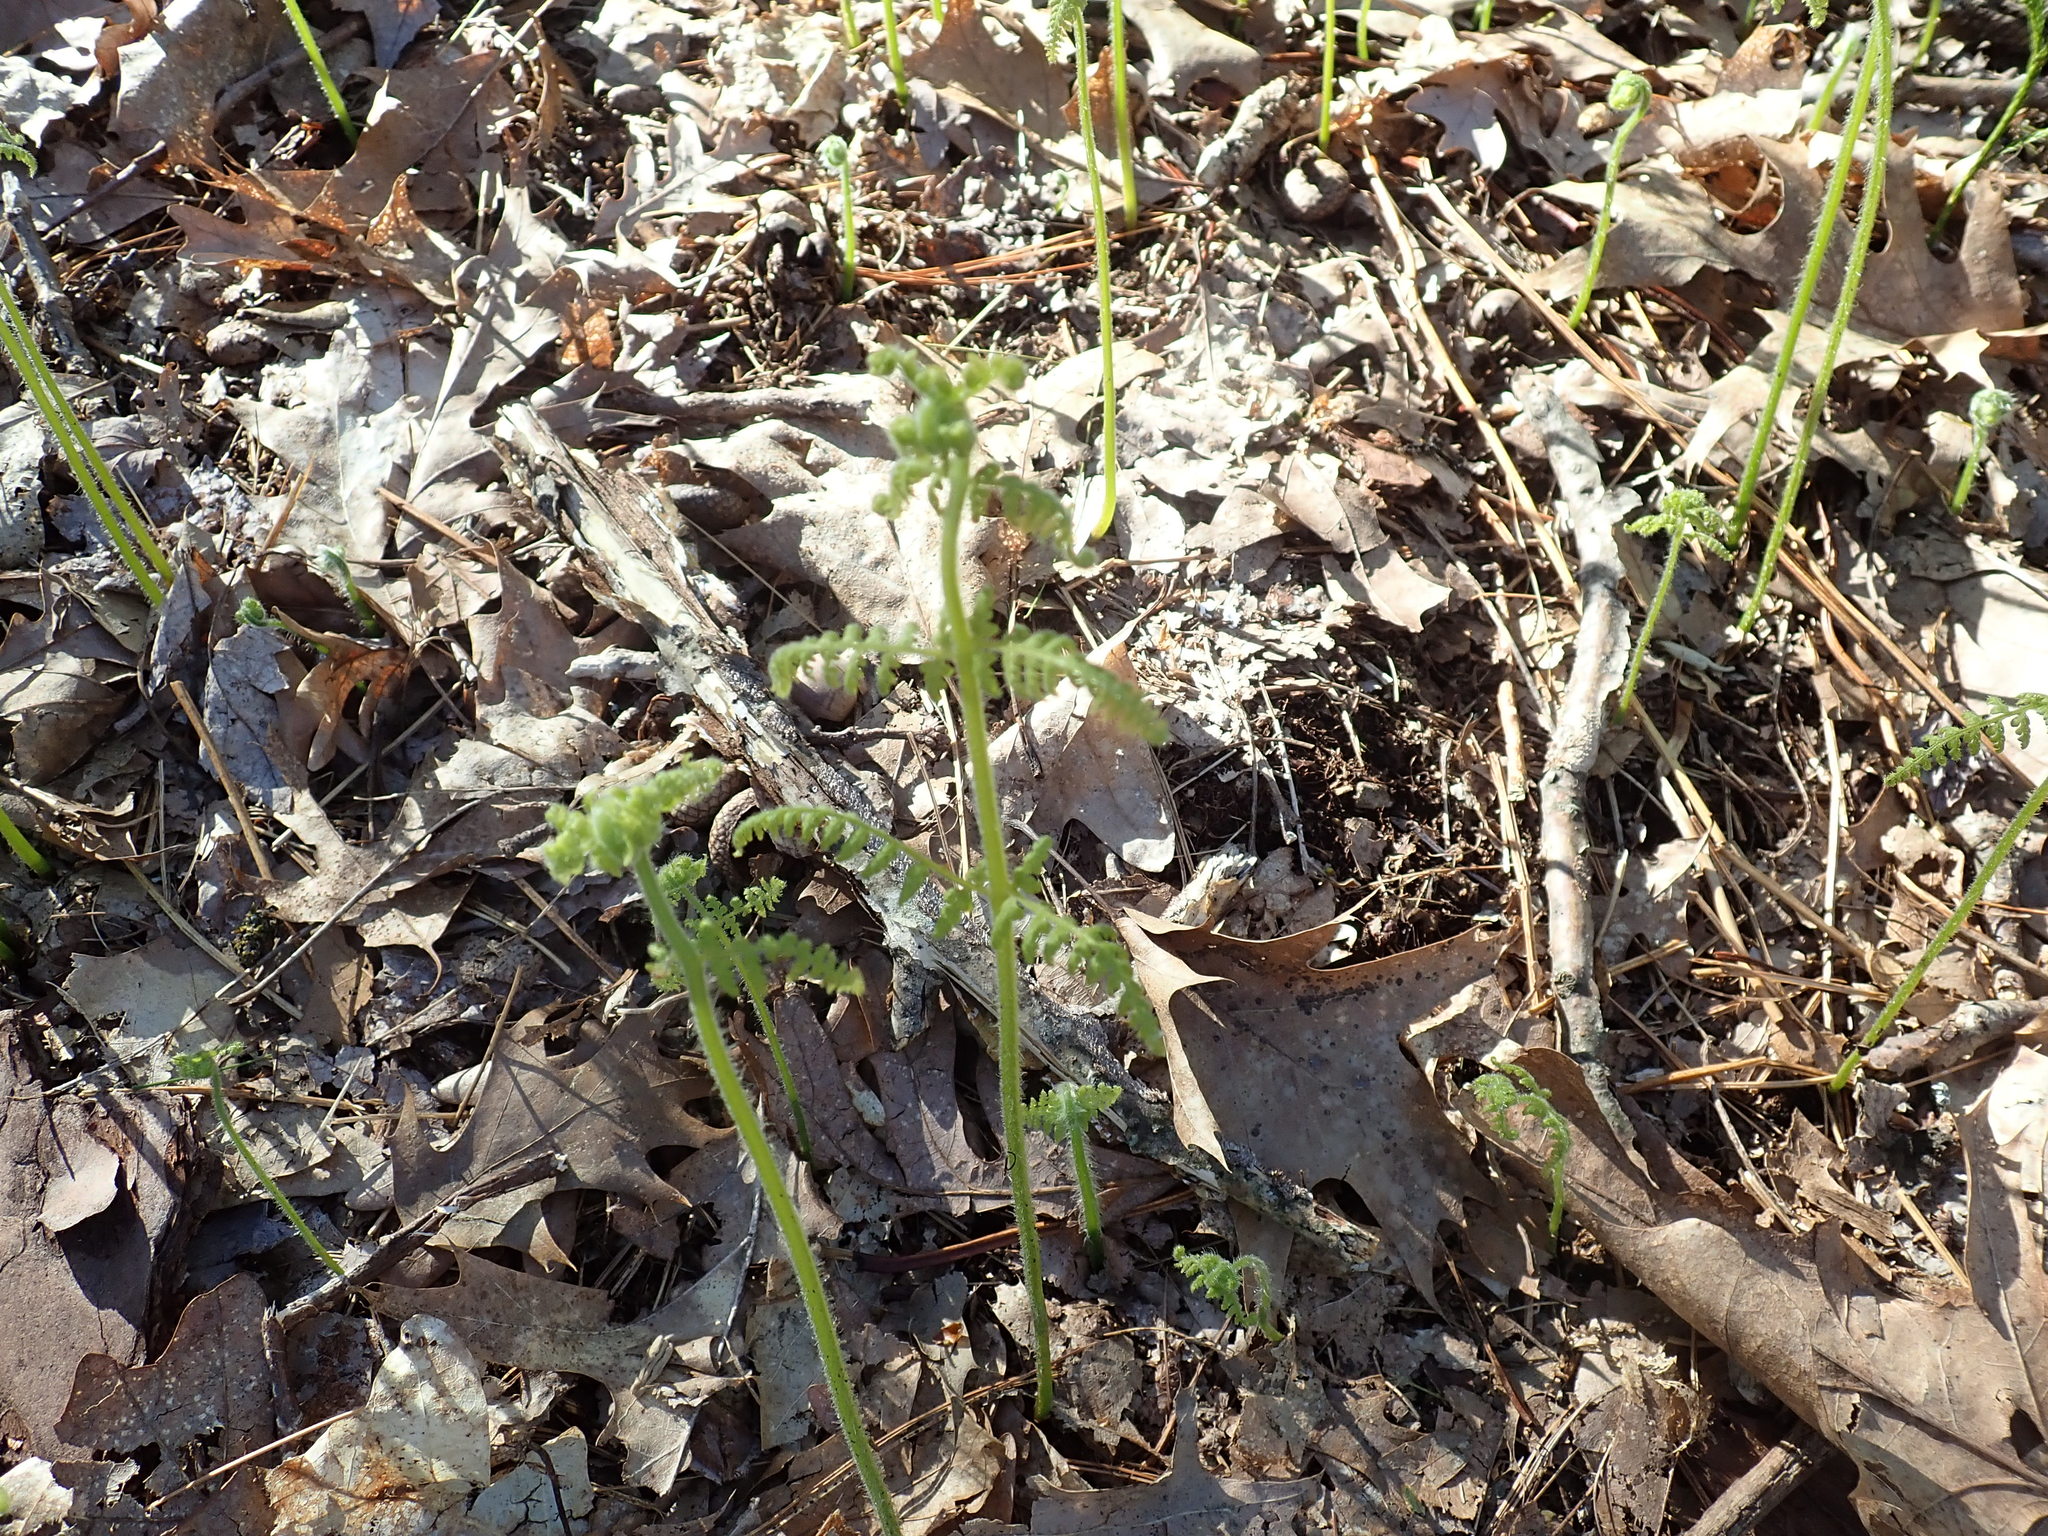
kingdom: Plantae
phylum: Tracheophyta
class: Polypodiopsida
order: Polypodiales
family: Dennstaedtiaceae
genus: Sitobolium
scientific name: Sitobolium punctilobum
